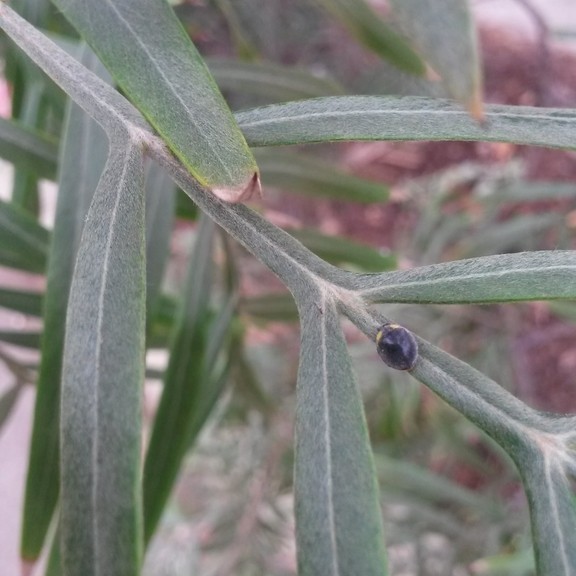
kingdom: Animalia
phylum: Arthropoda
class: Insecta
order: Coleoptera
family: Coccinellidae
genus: Scymnodes
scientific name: Scymnodes lividigaster
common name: Yellowshouldered lady beetle
